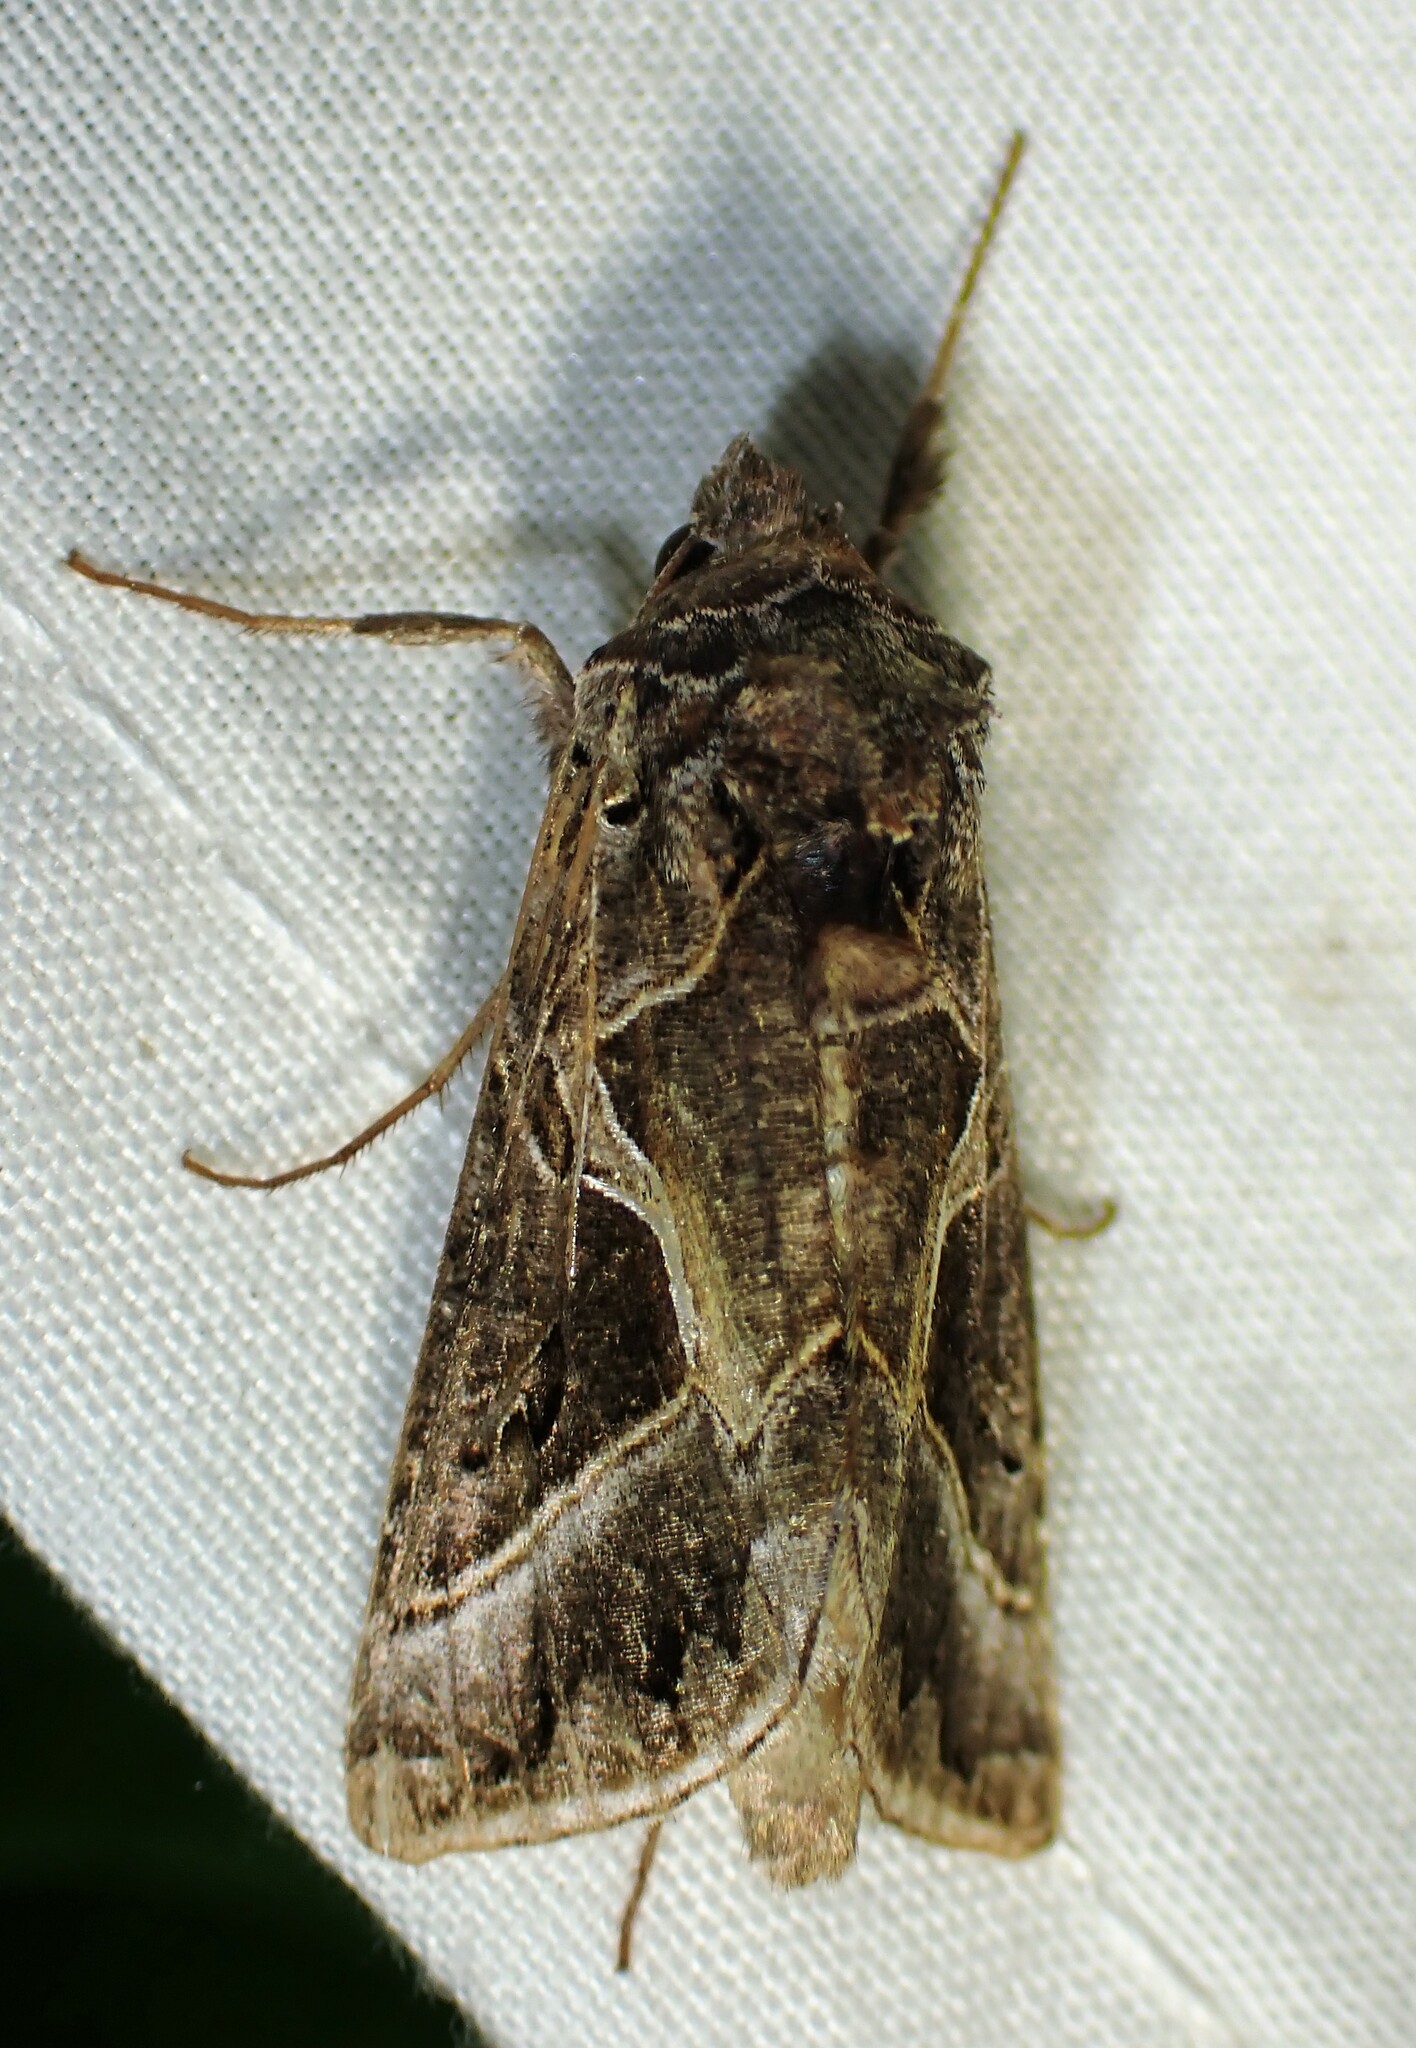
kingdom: Animalia
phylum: Arthropoda
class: Insecta
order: Lepidoptera
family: Noctuidae
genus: Autographa
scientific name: Autographa flagellum
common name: Silver whip moth
